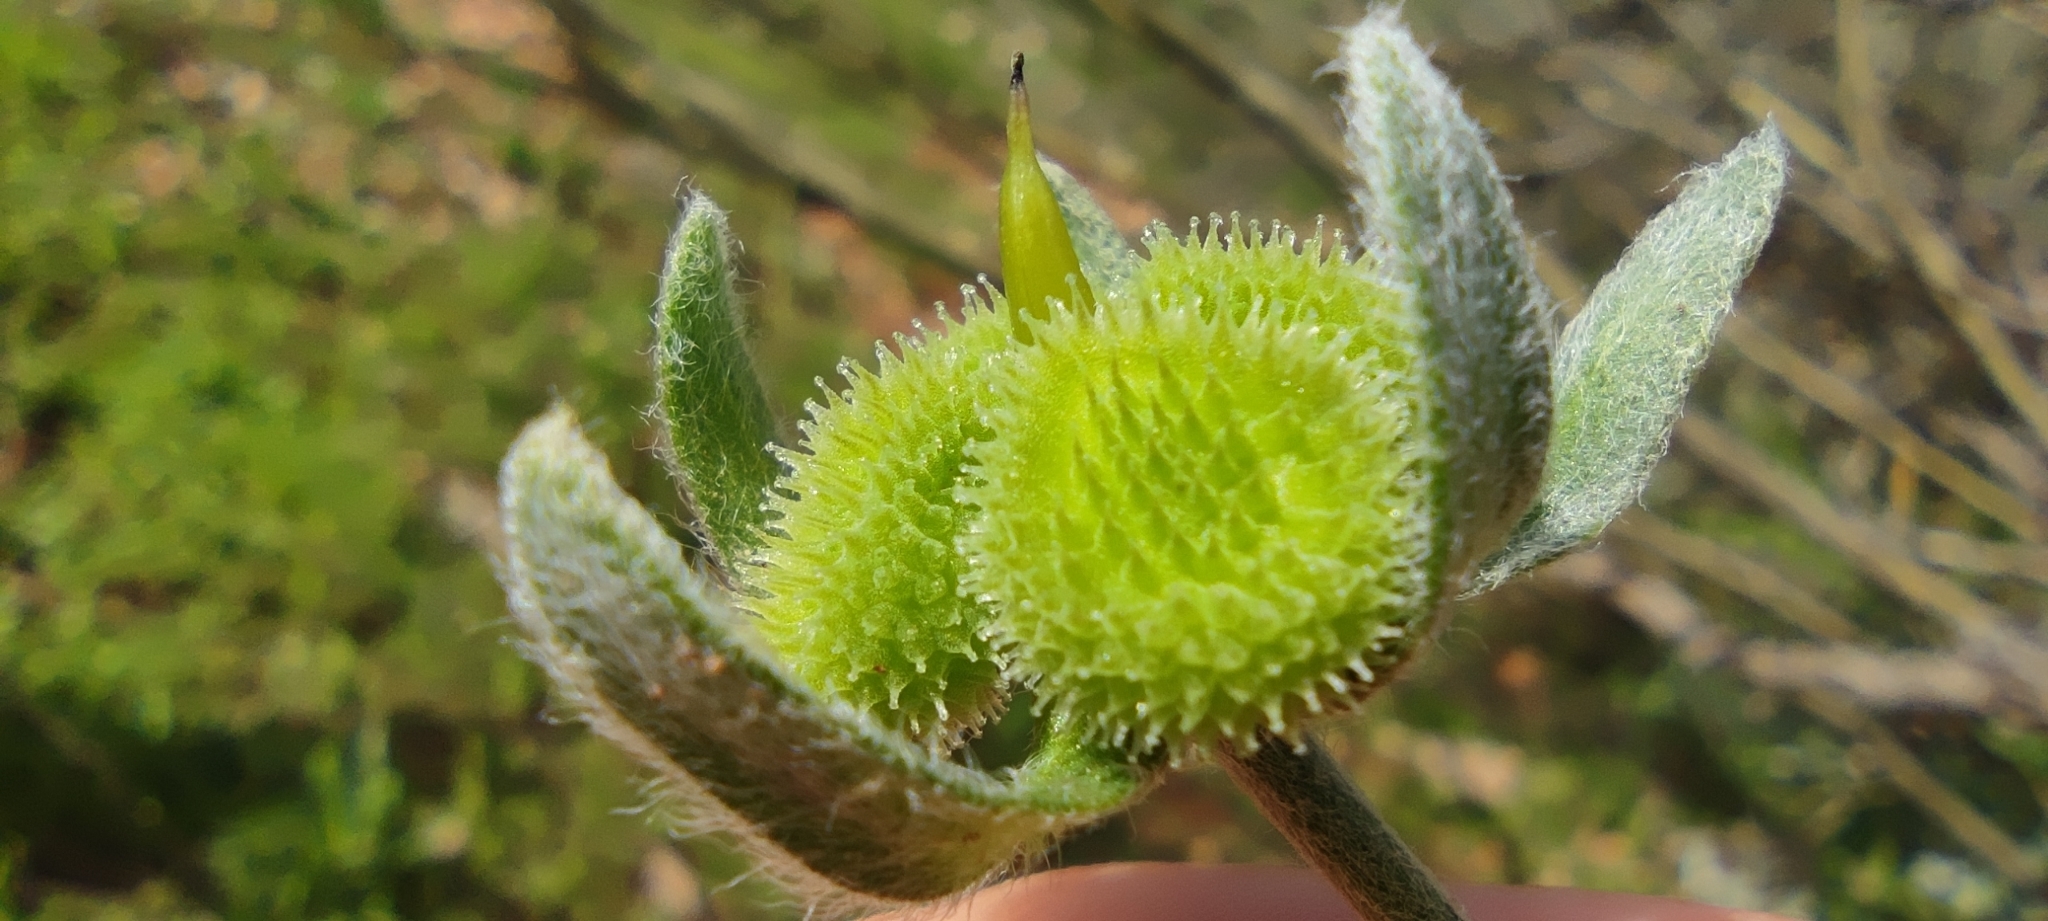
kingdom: Plantae
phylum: Tracheophyta
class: Magnoliopsida
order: Boraginales
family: Boraginaceae
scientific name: Boraginaceae
